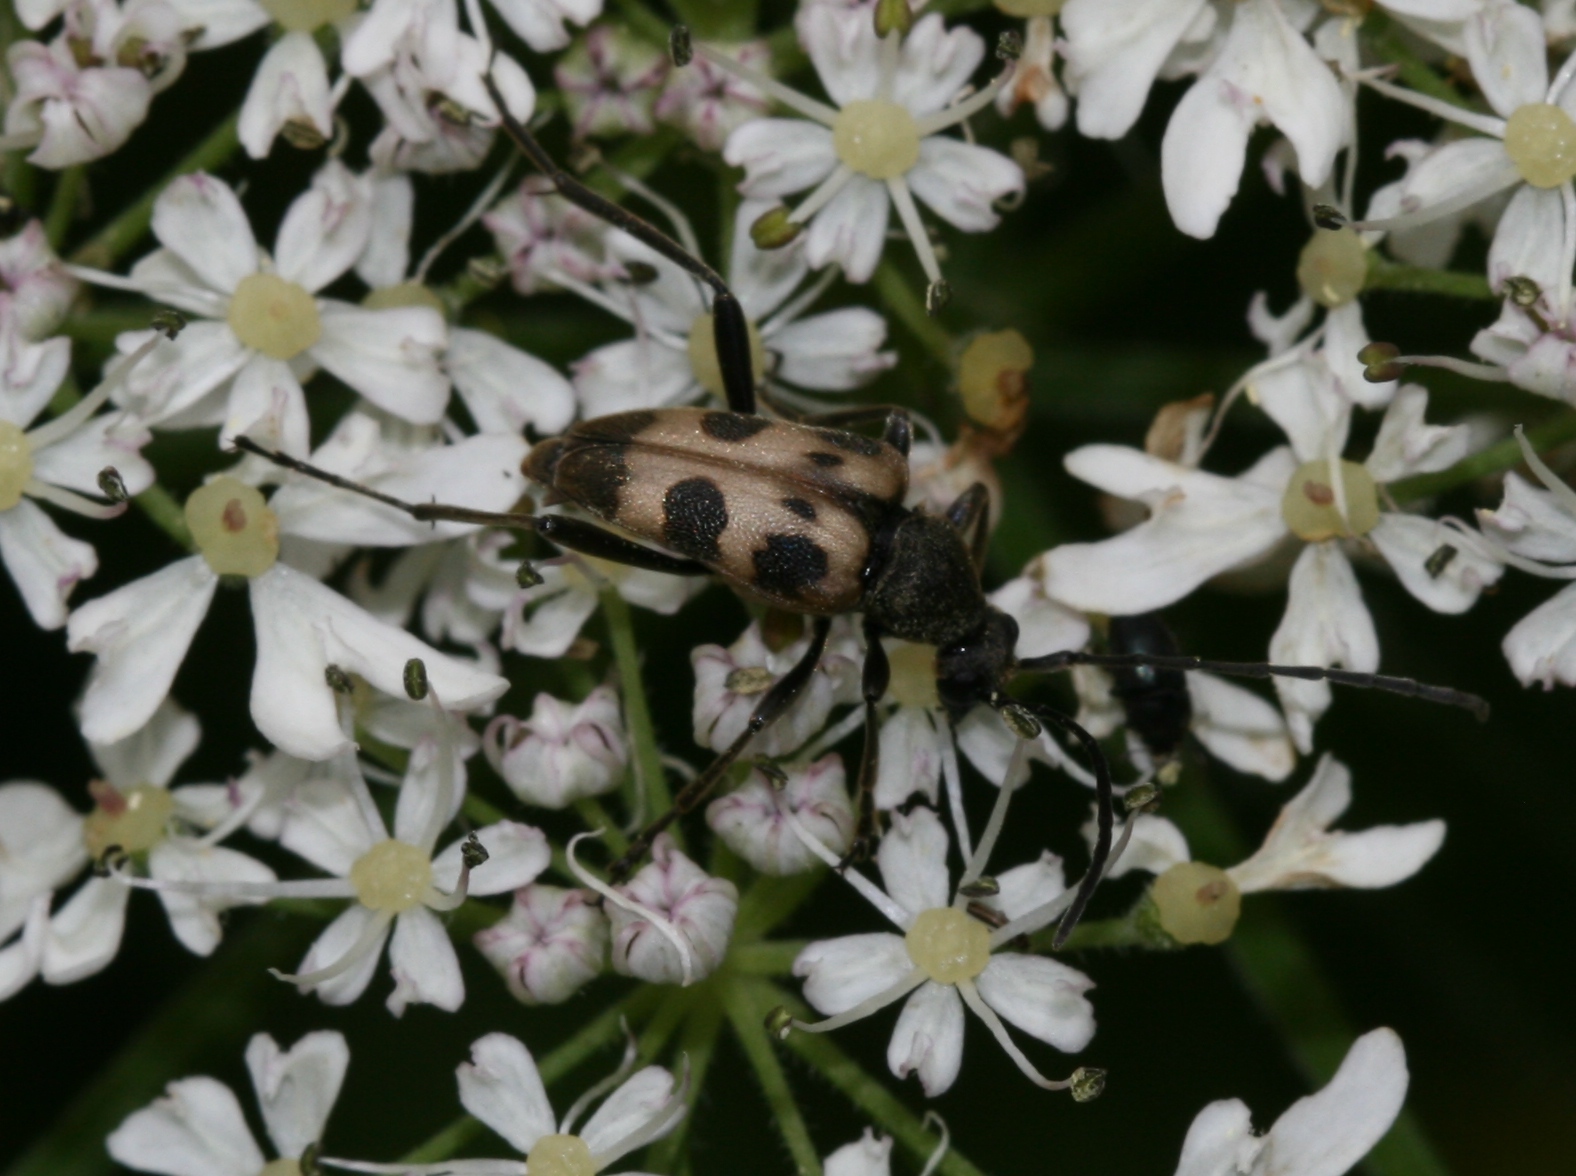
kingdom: Animalia
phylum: Arthropoda
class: Insecta
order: Coleoptera
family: Cerambycidae
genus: Pachytodes
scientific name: Pachytodes cerambyciformis
